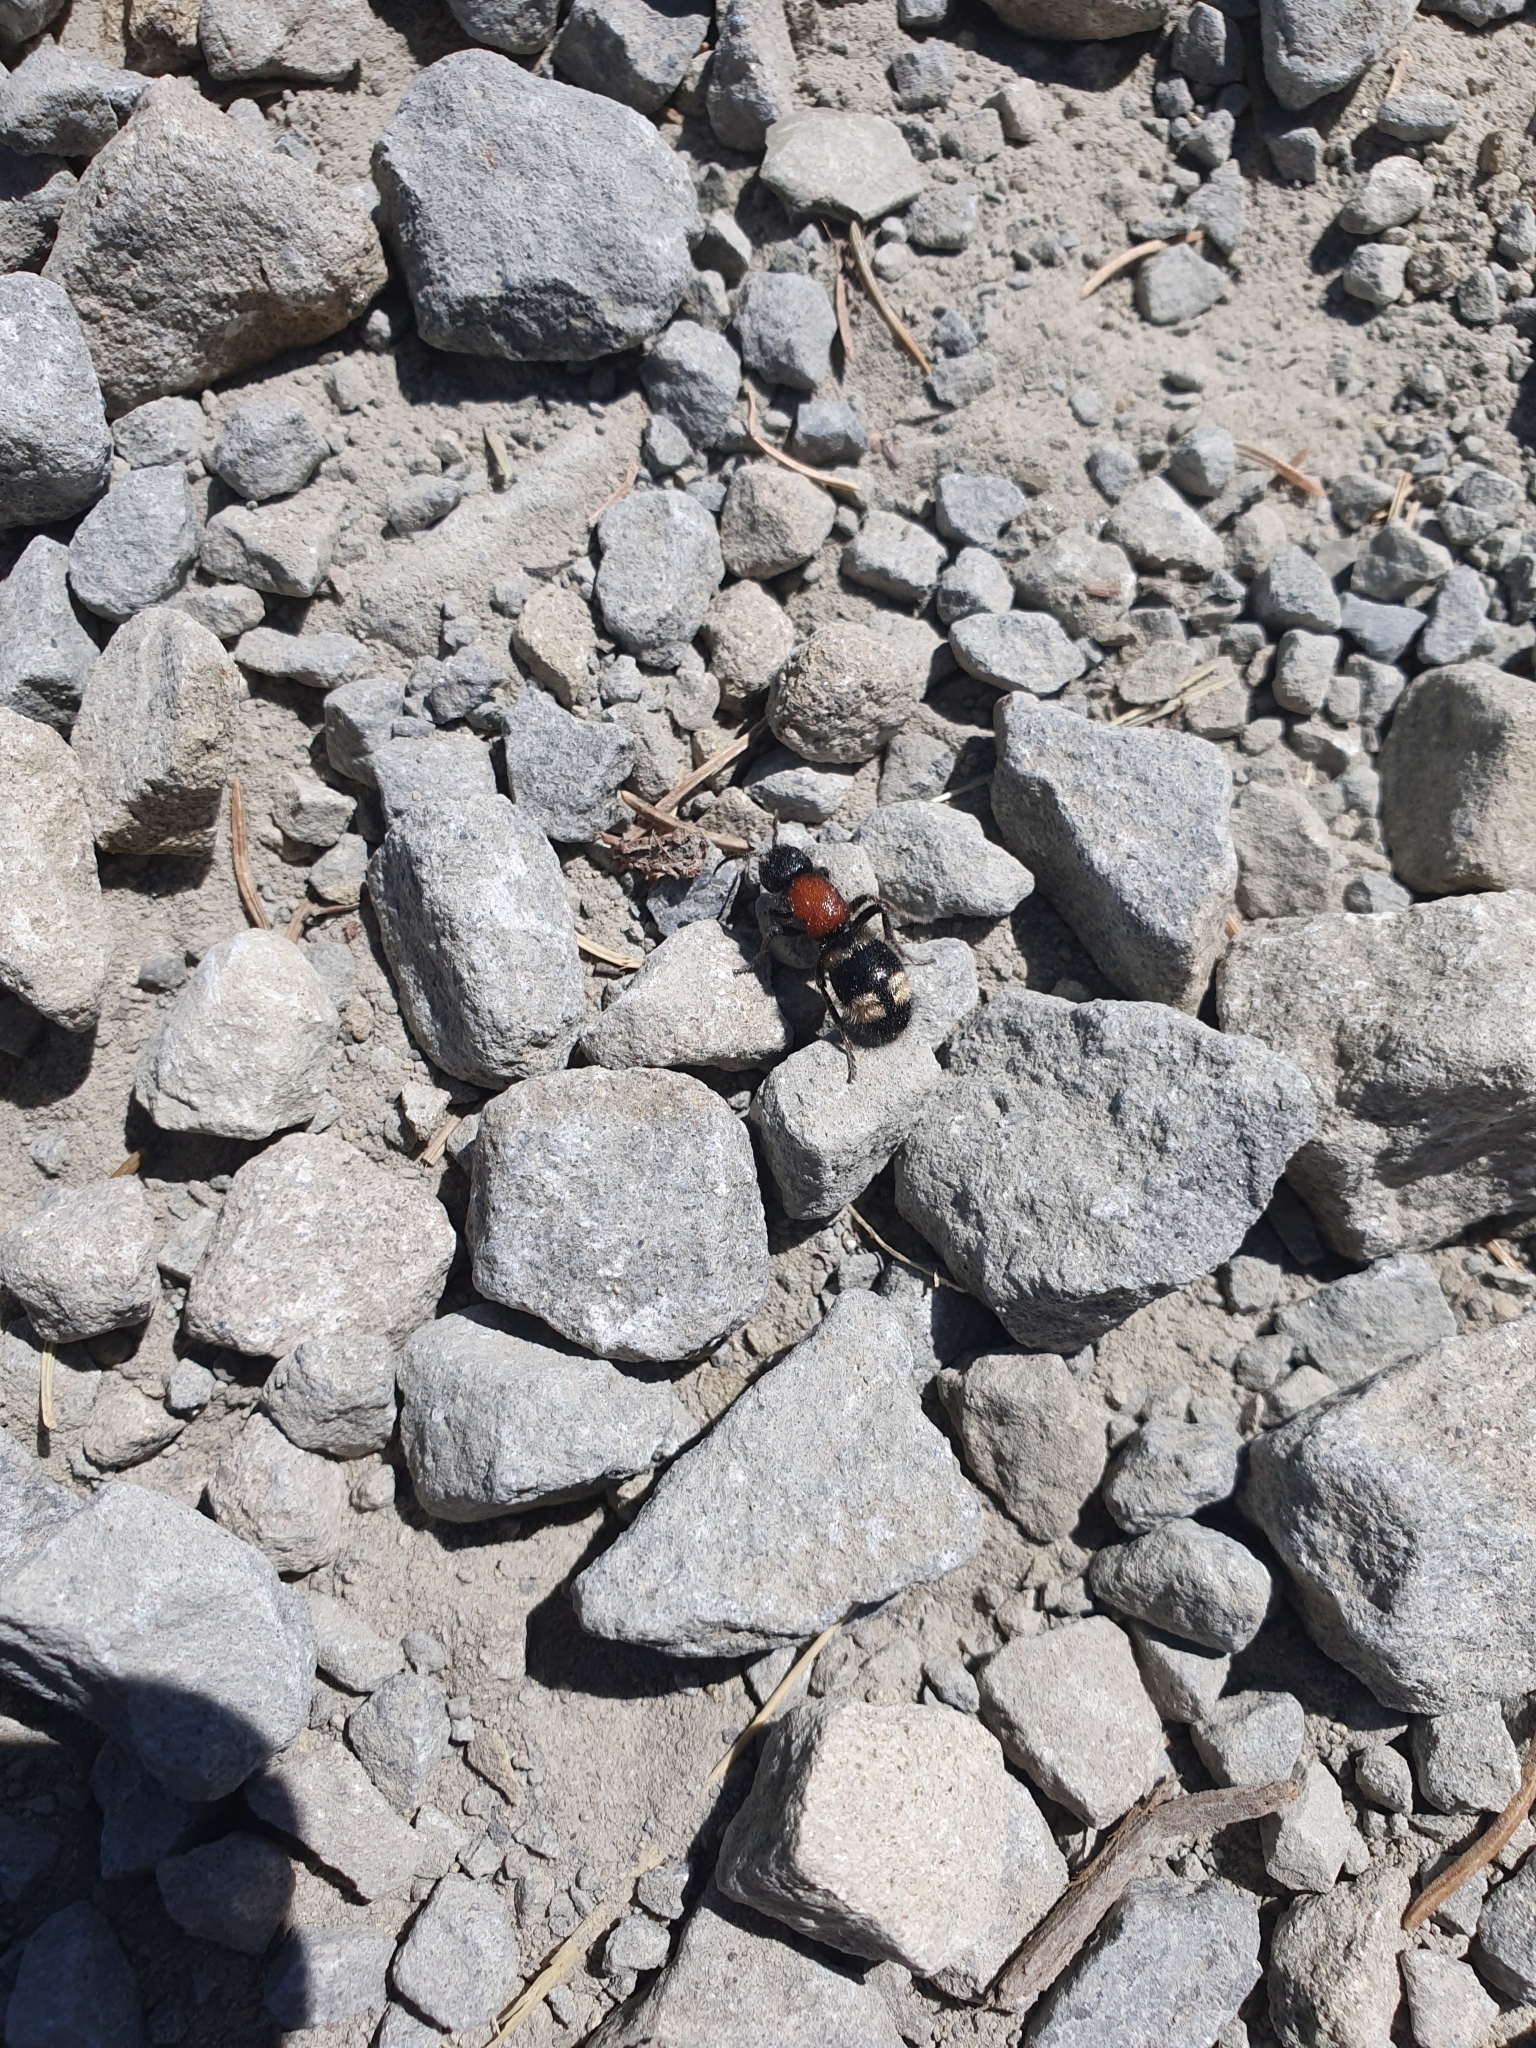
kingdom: Animalia
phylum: Arthropoda
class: Insecta
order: Hymenoptera
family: Mutillidae
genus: Mutilla
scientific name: Mutilla europaea
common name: Large velvet ant
